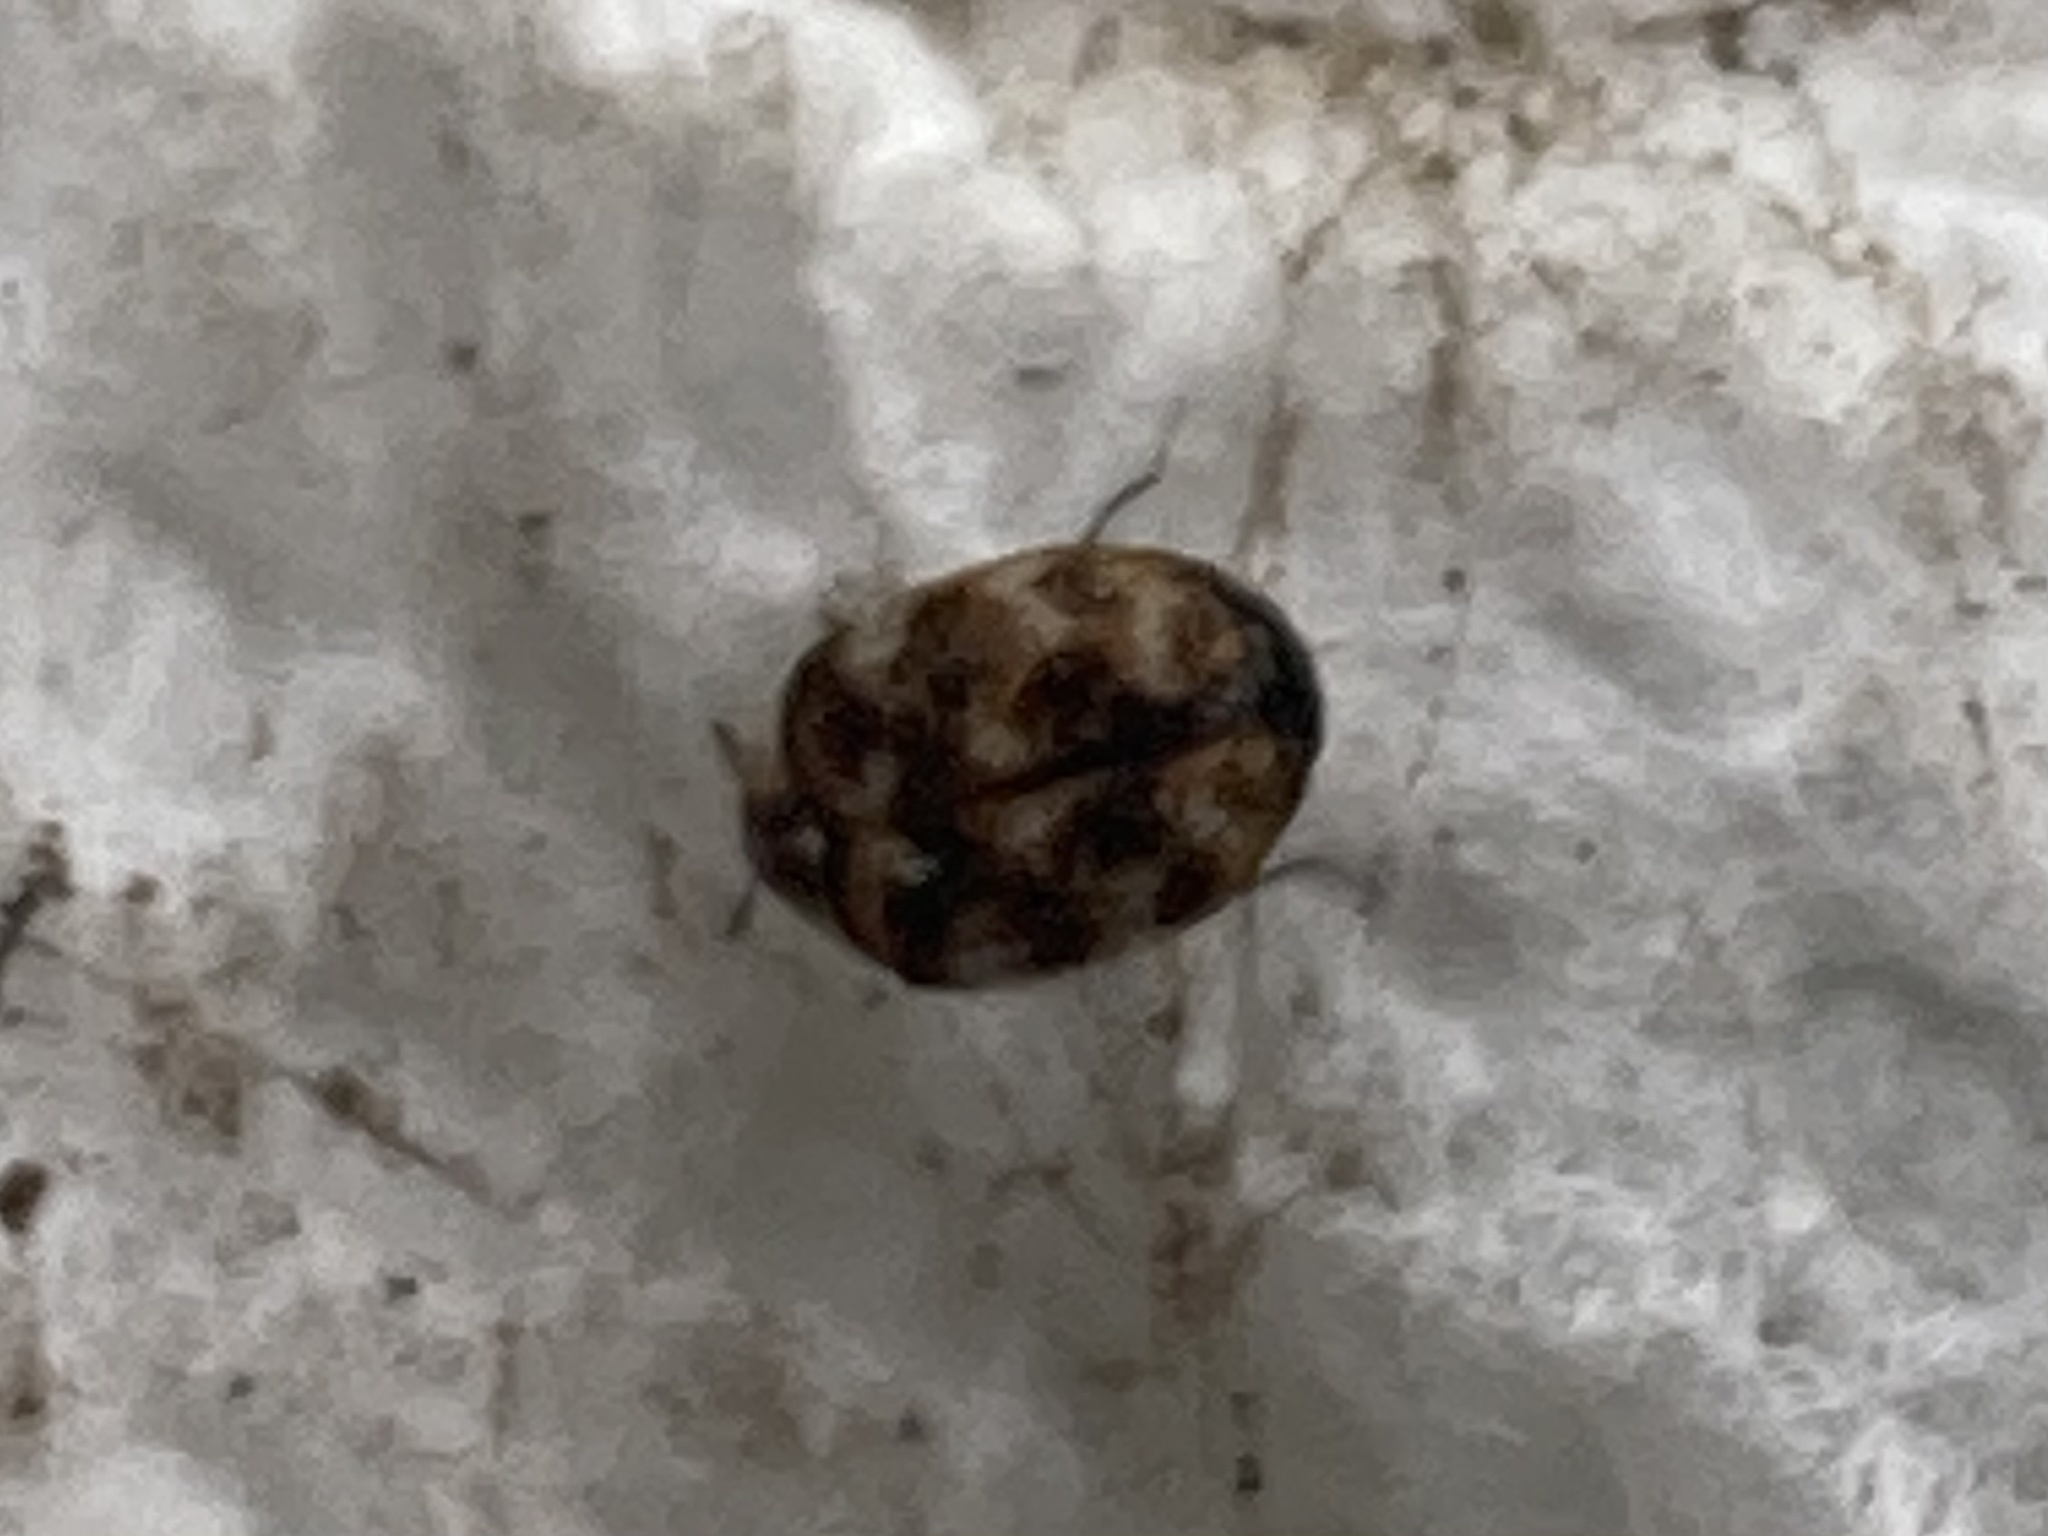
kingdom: Animalia
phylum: Arthropoda
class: Insecta
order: Coleoptera
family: Dermestidae
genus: Anthrenus
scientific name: Anthrenus verbasci
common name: Varied carpet beetle
